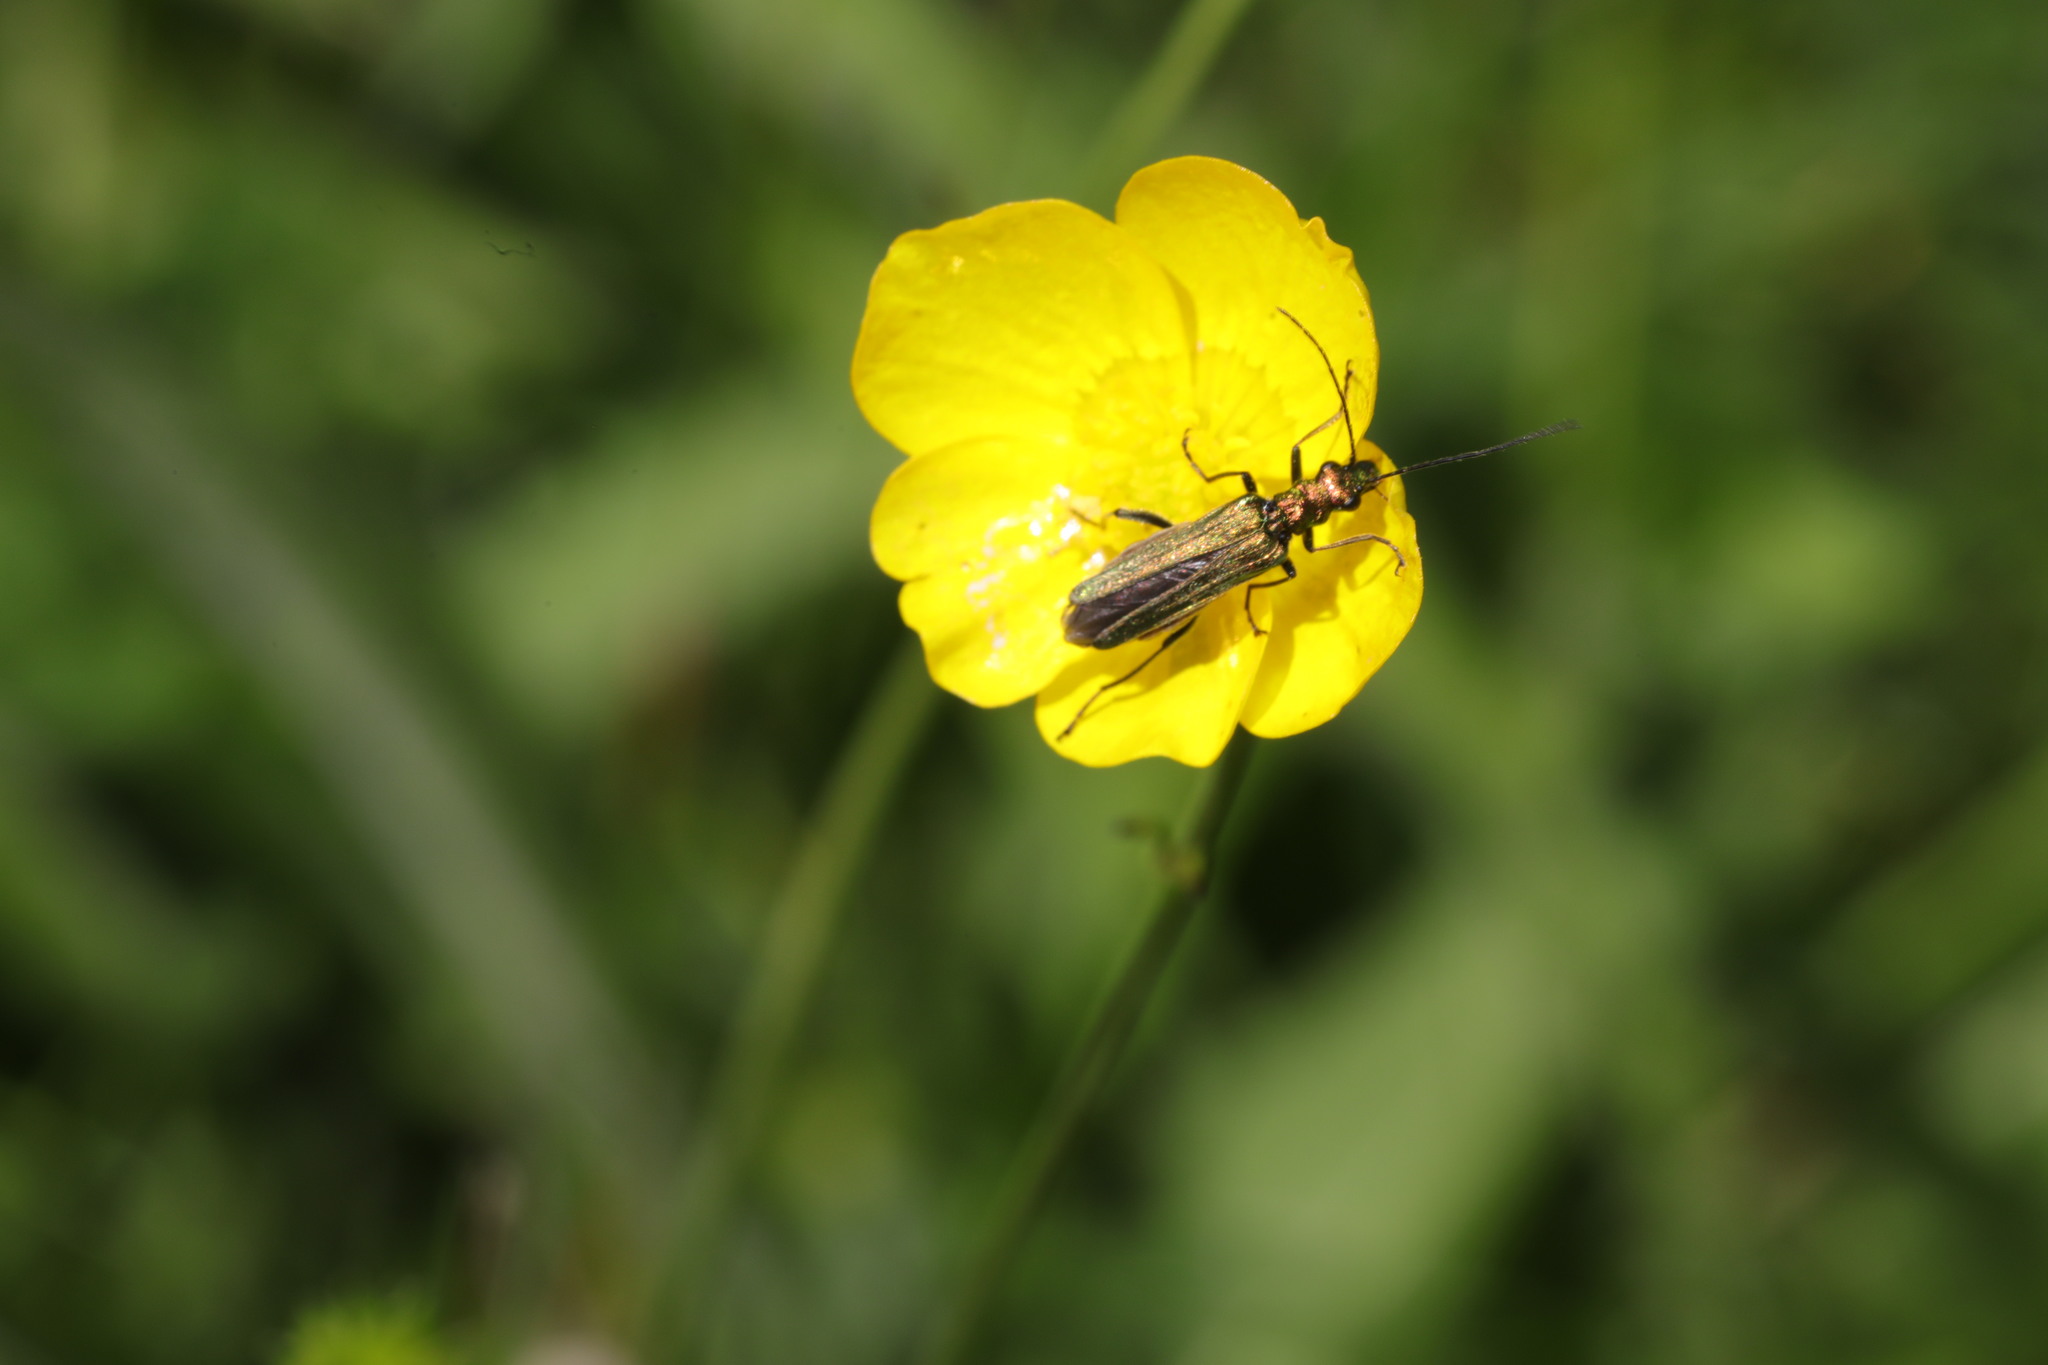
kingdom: Animalia
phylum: Arthropoda
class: Insecta
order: Coleoptera
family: Oedemeridae
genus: Oedemera
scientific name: Oedemera nobilis
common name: Swollen-thighed beetle
